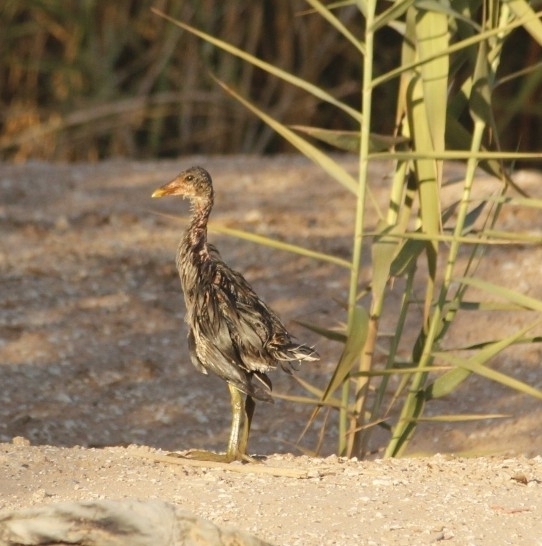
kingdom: Animalia
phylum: Chordata
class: Aves
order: Gruiformes
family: Rallidae
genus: Gallinula
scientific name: Gallinula chloropus
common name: Common moorhen
